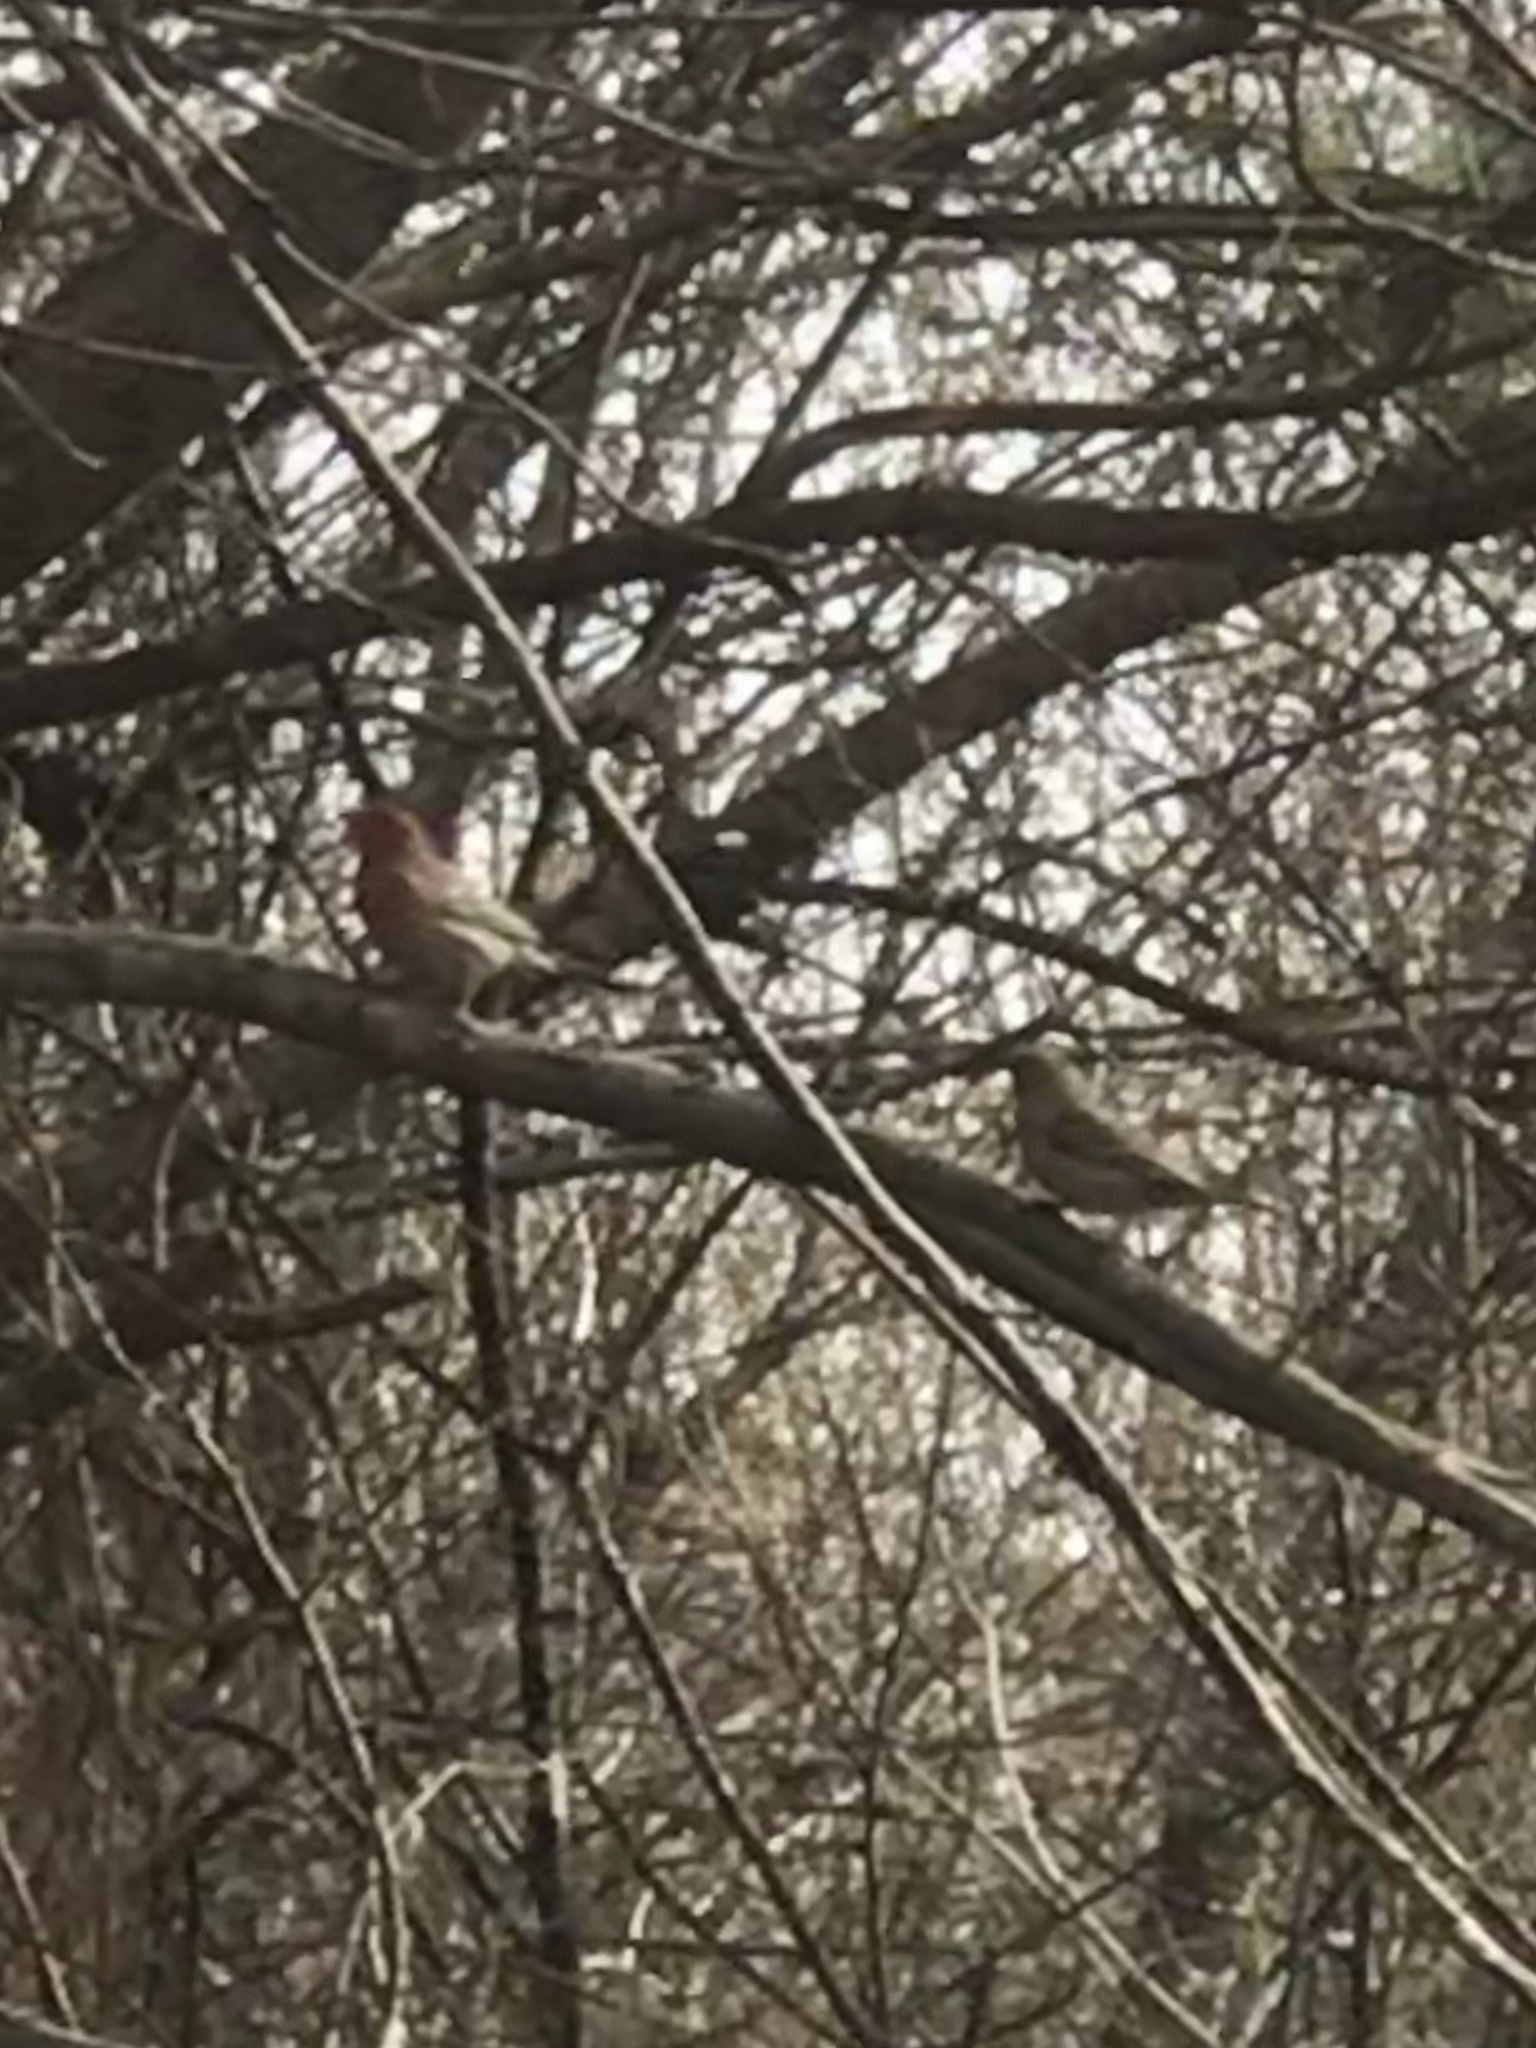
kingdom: Animalia
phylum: Chordata
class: Aves
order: Passeriformes
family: Fringillidae
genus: Haemorhous
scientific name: Haemorhous mexicanus
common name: House finch
